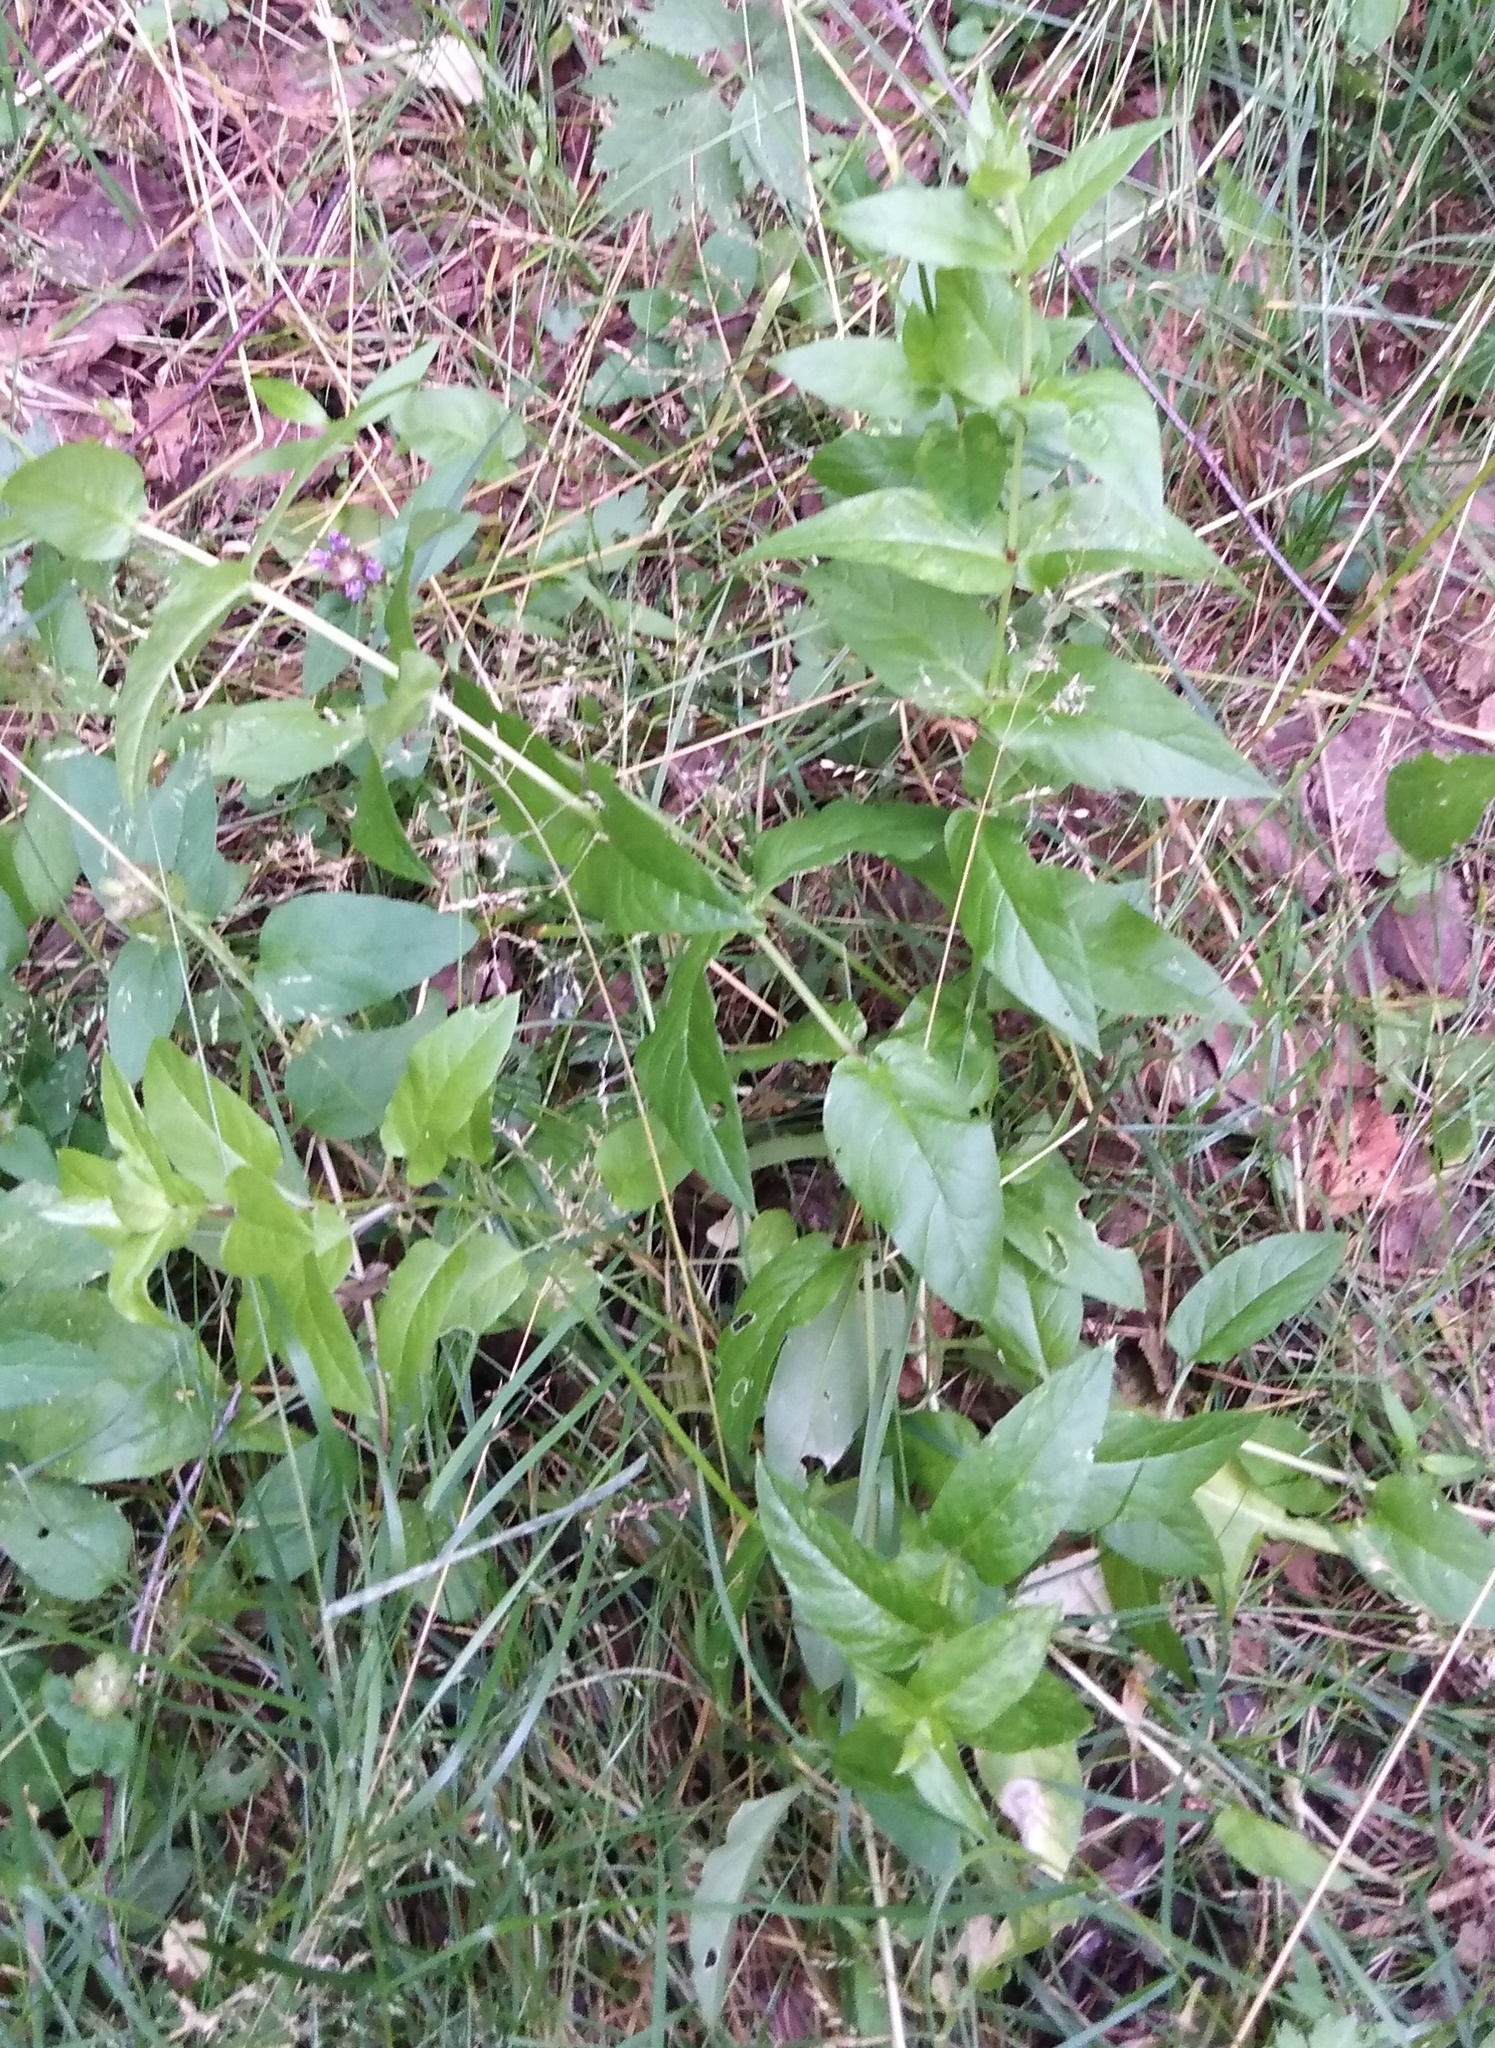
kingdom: Plantae
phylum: Tracheophyta
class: Magnoliopsida
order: Caryophyllales
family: Caryophyllaceae
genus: Stellaria
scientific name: Stellaria aquatica
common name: Water chickweed
